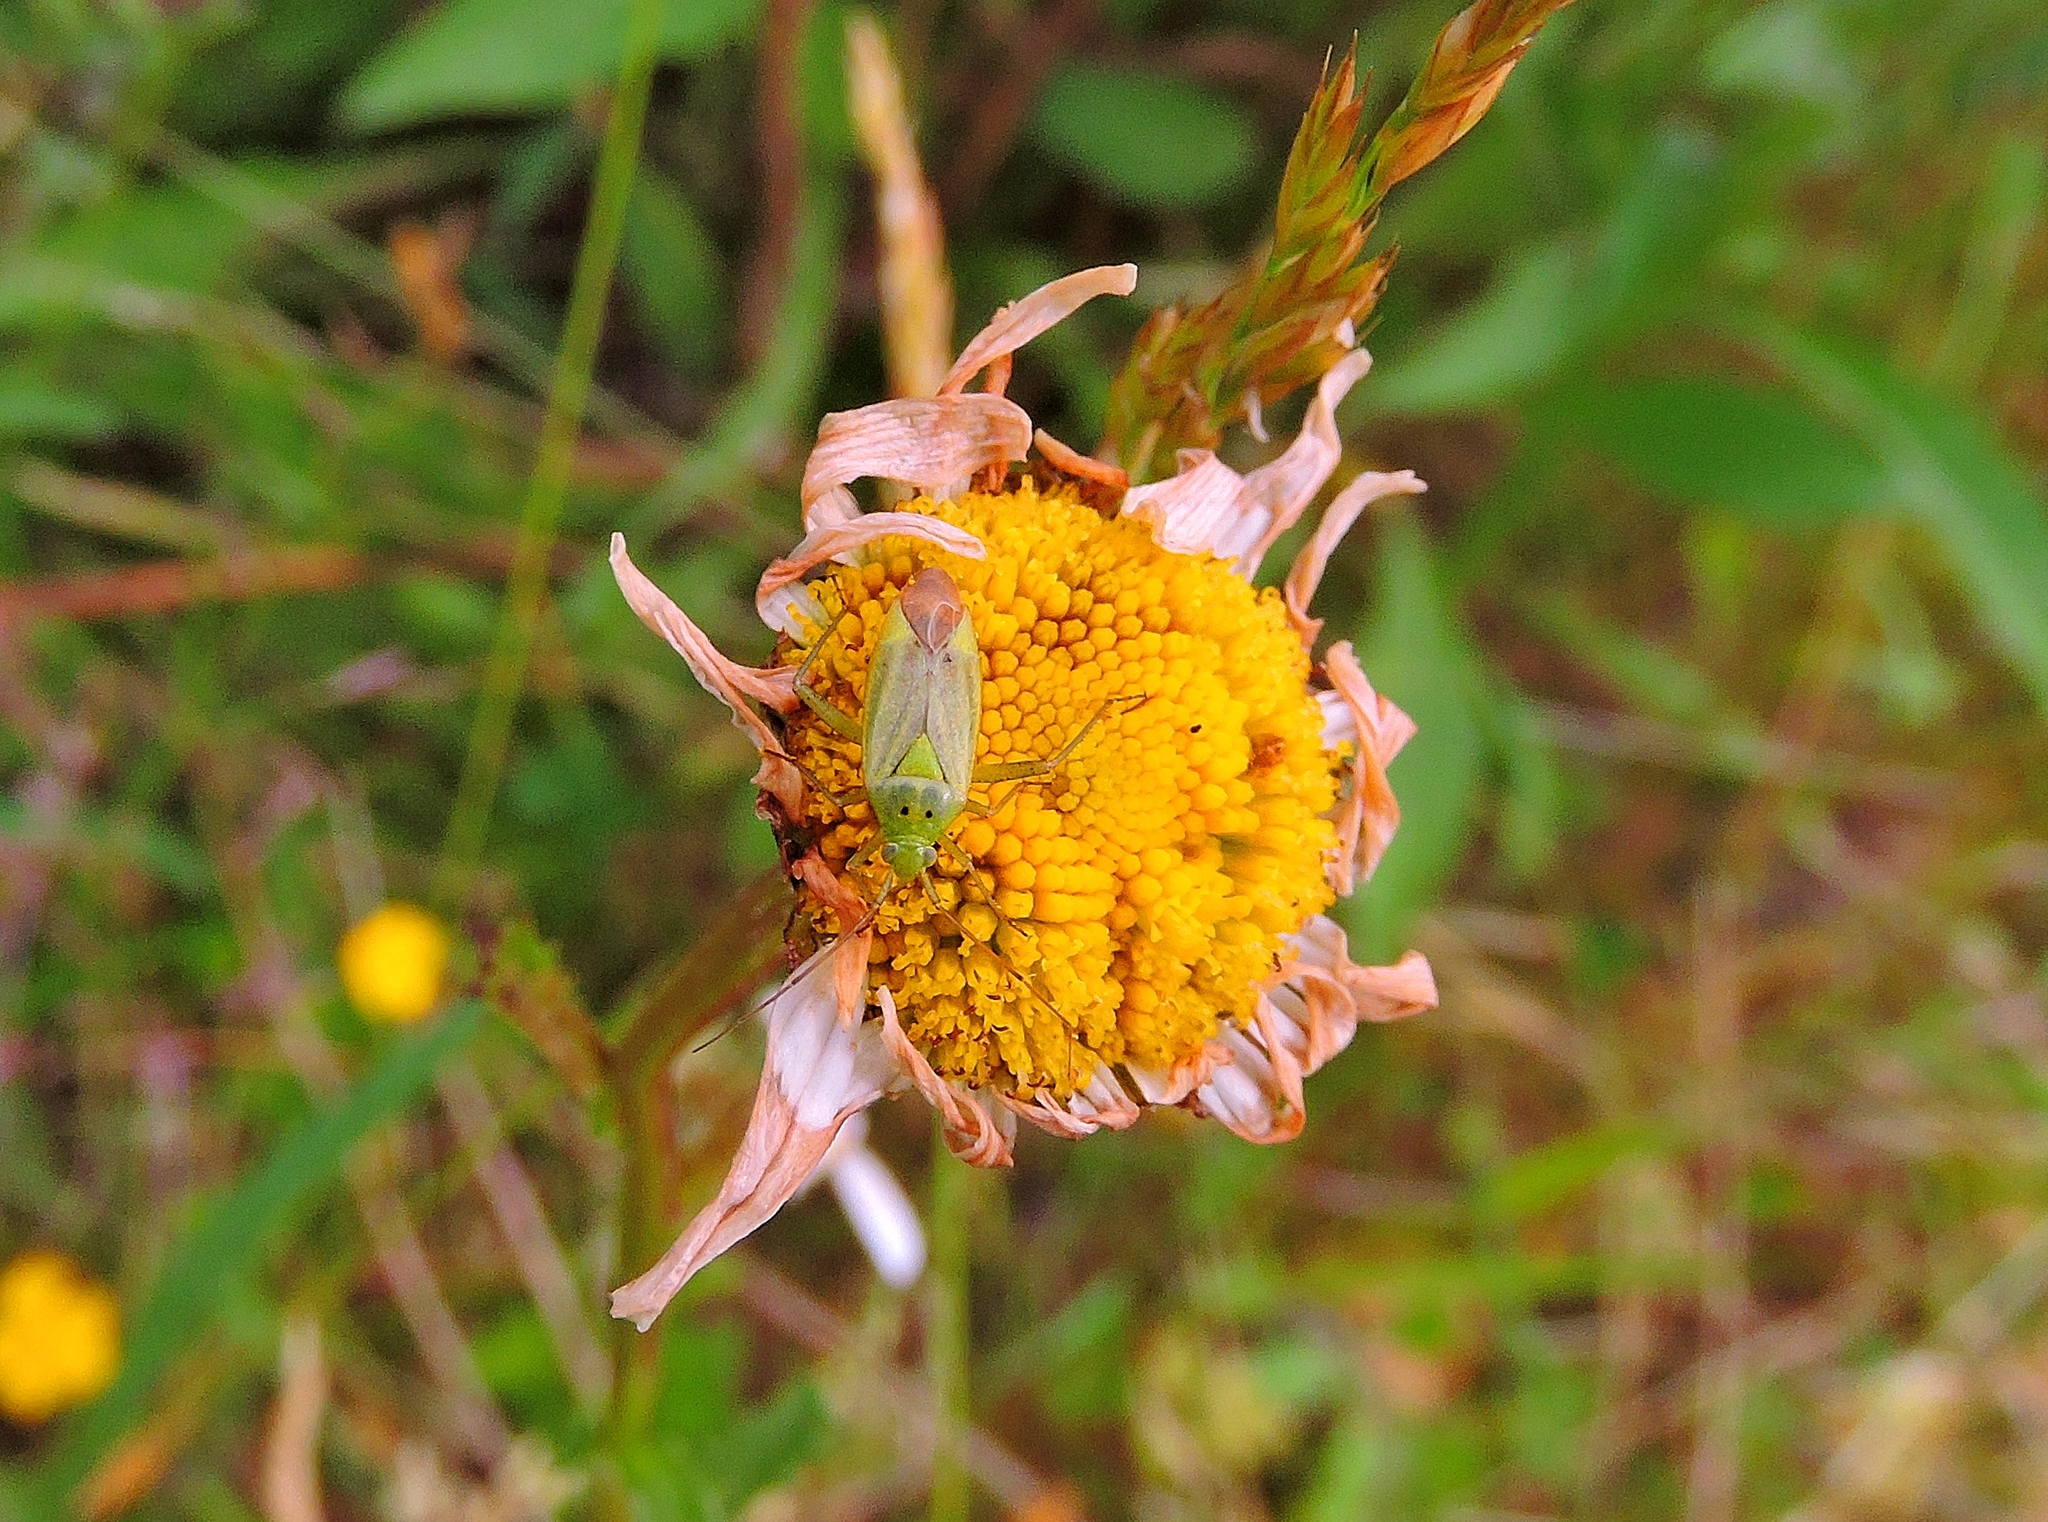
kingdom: Animalia
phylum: Arthropoda
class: Insecta
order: Hemiptera
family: Miridae
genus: Closterotomus
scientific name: Closterotomus norvegicus
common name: Plant bug
